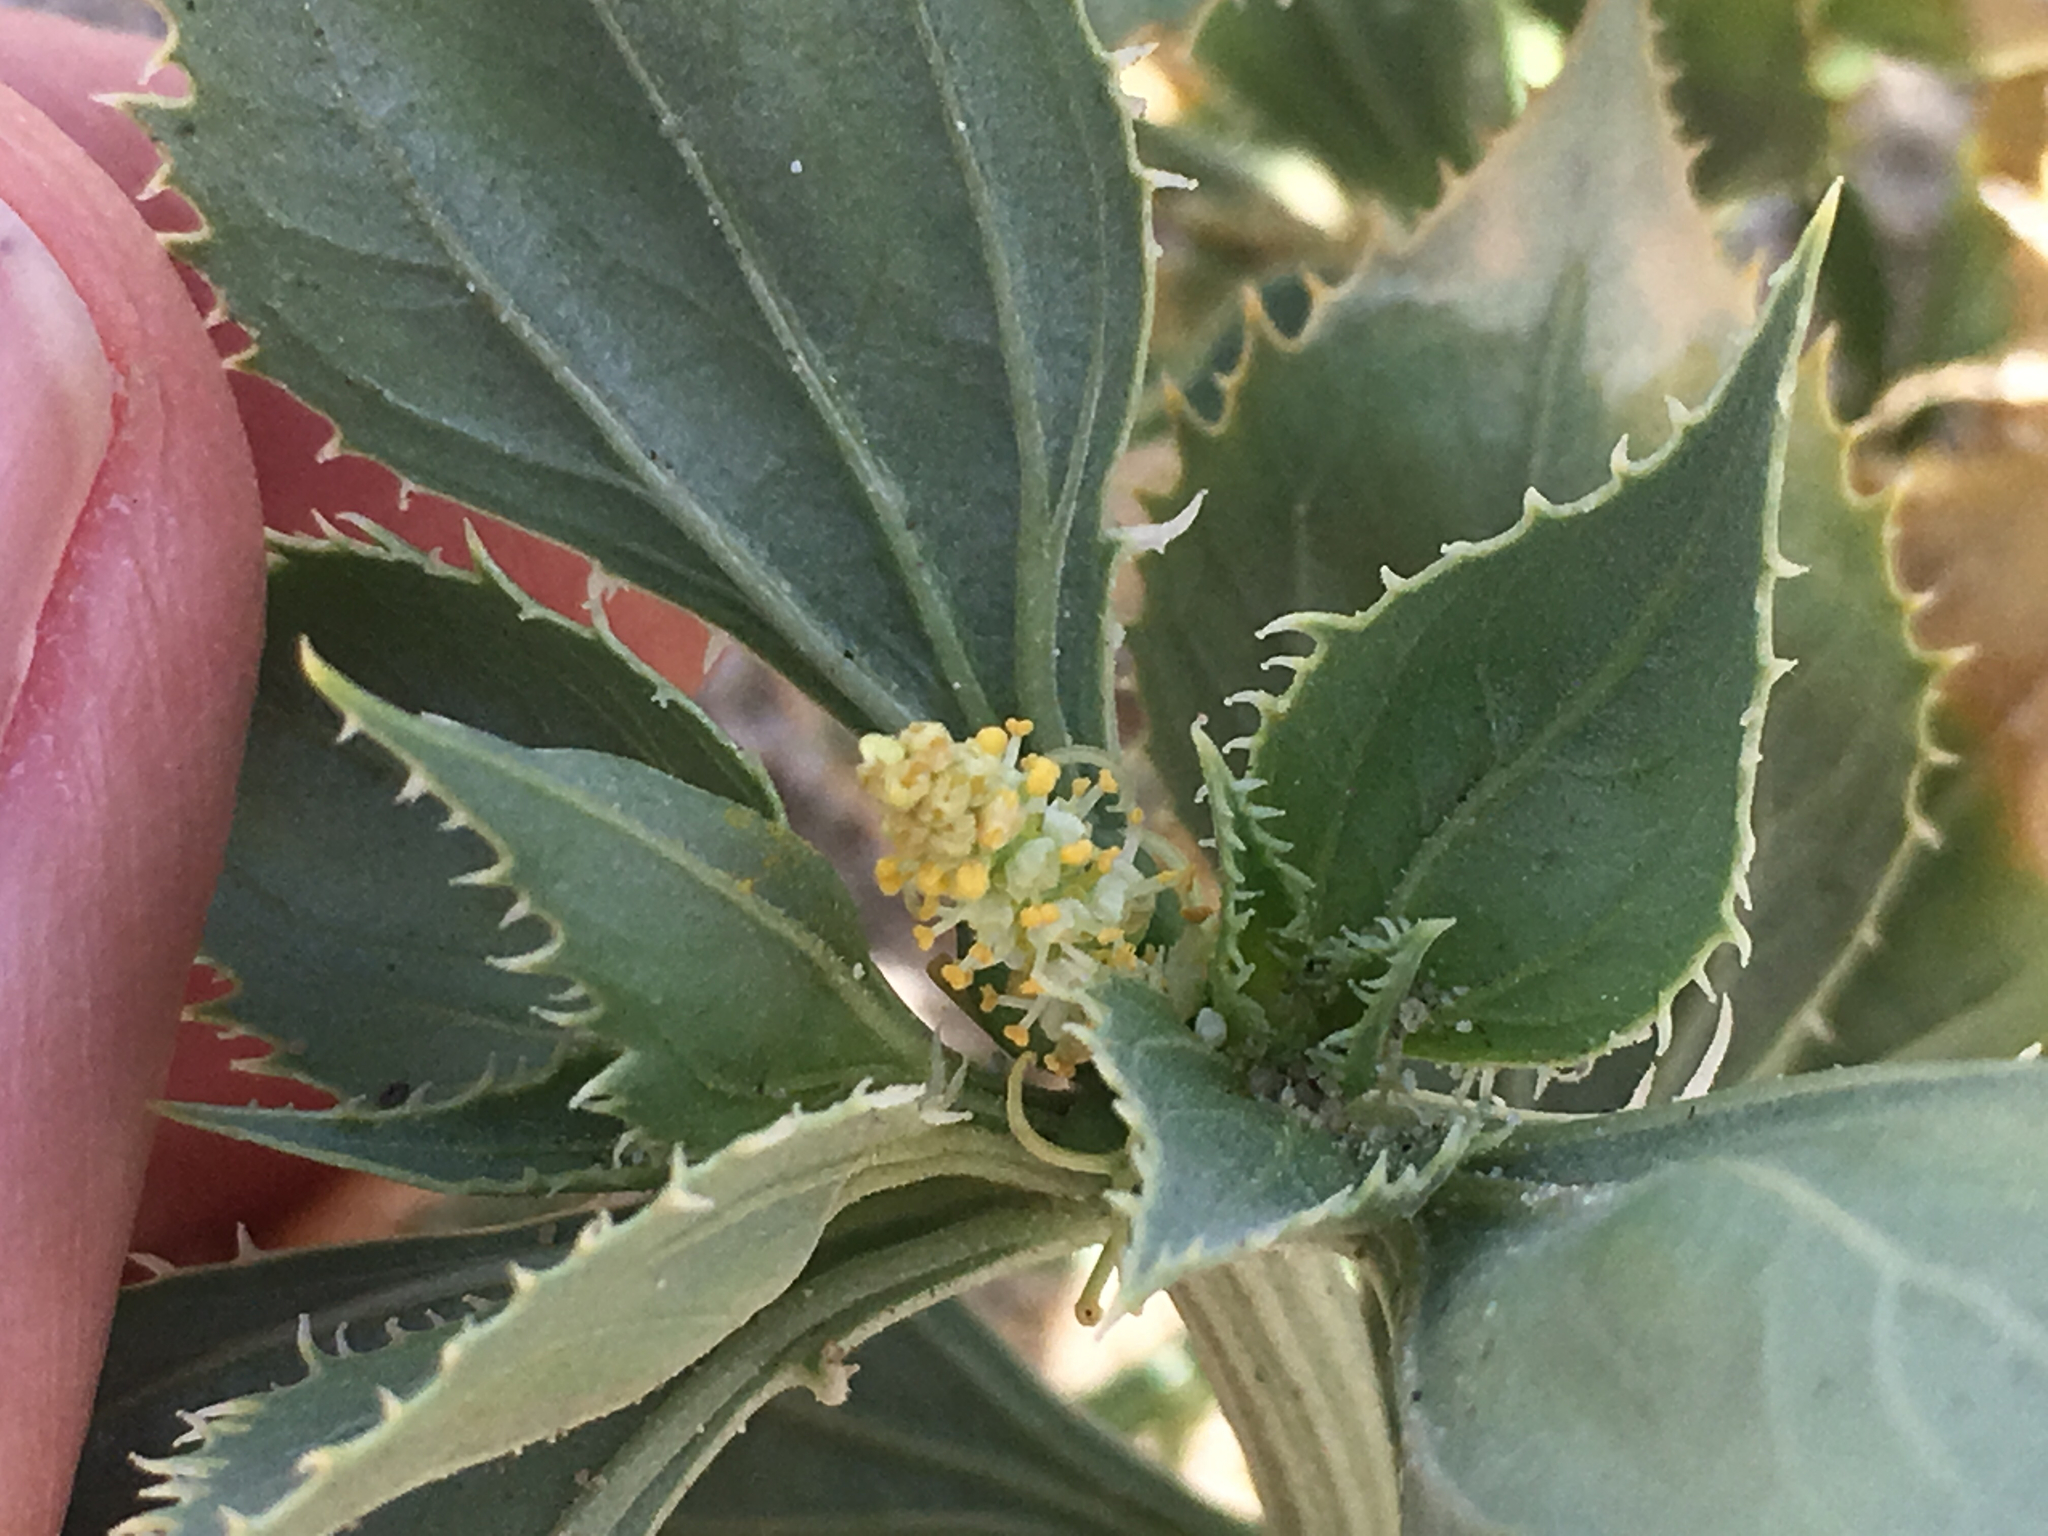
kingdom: Plantae
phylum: Tracheophyta
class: Magnoliopsida
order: Malpighiales
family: Euphorbiaceae
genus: Stillingia
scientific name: Stillingia spinulosa
